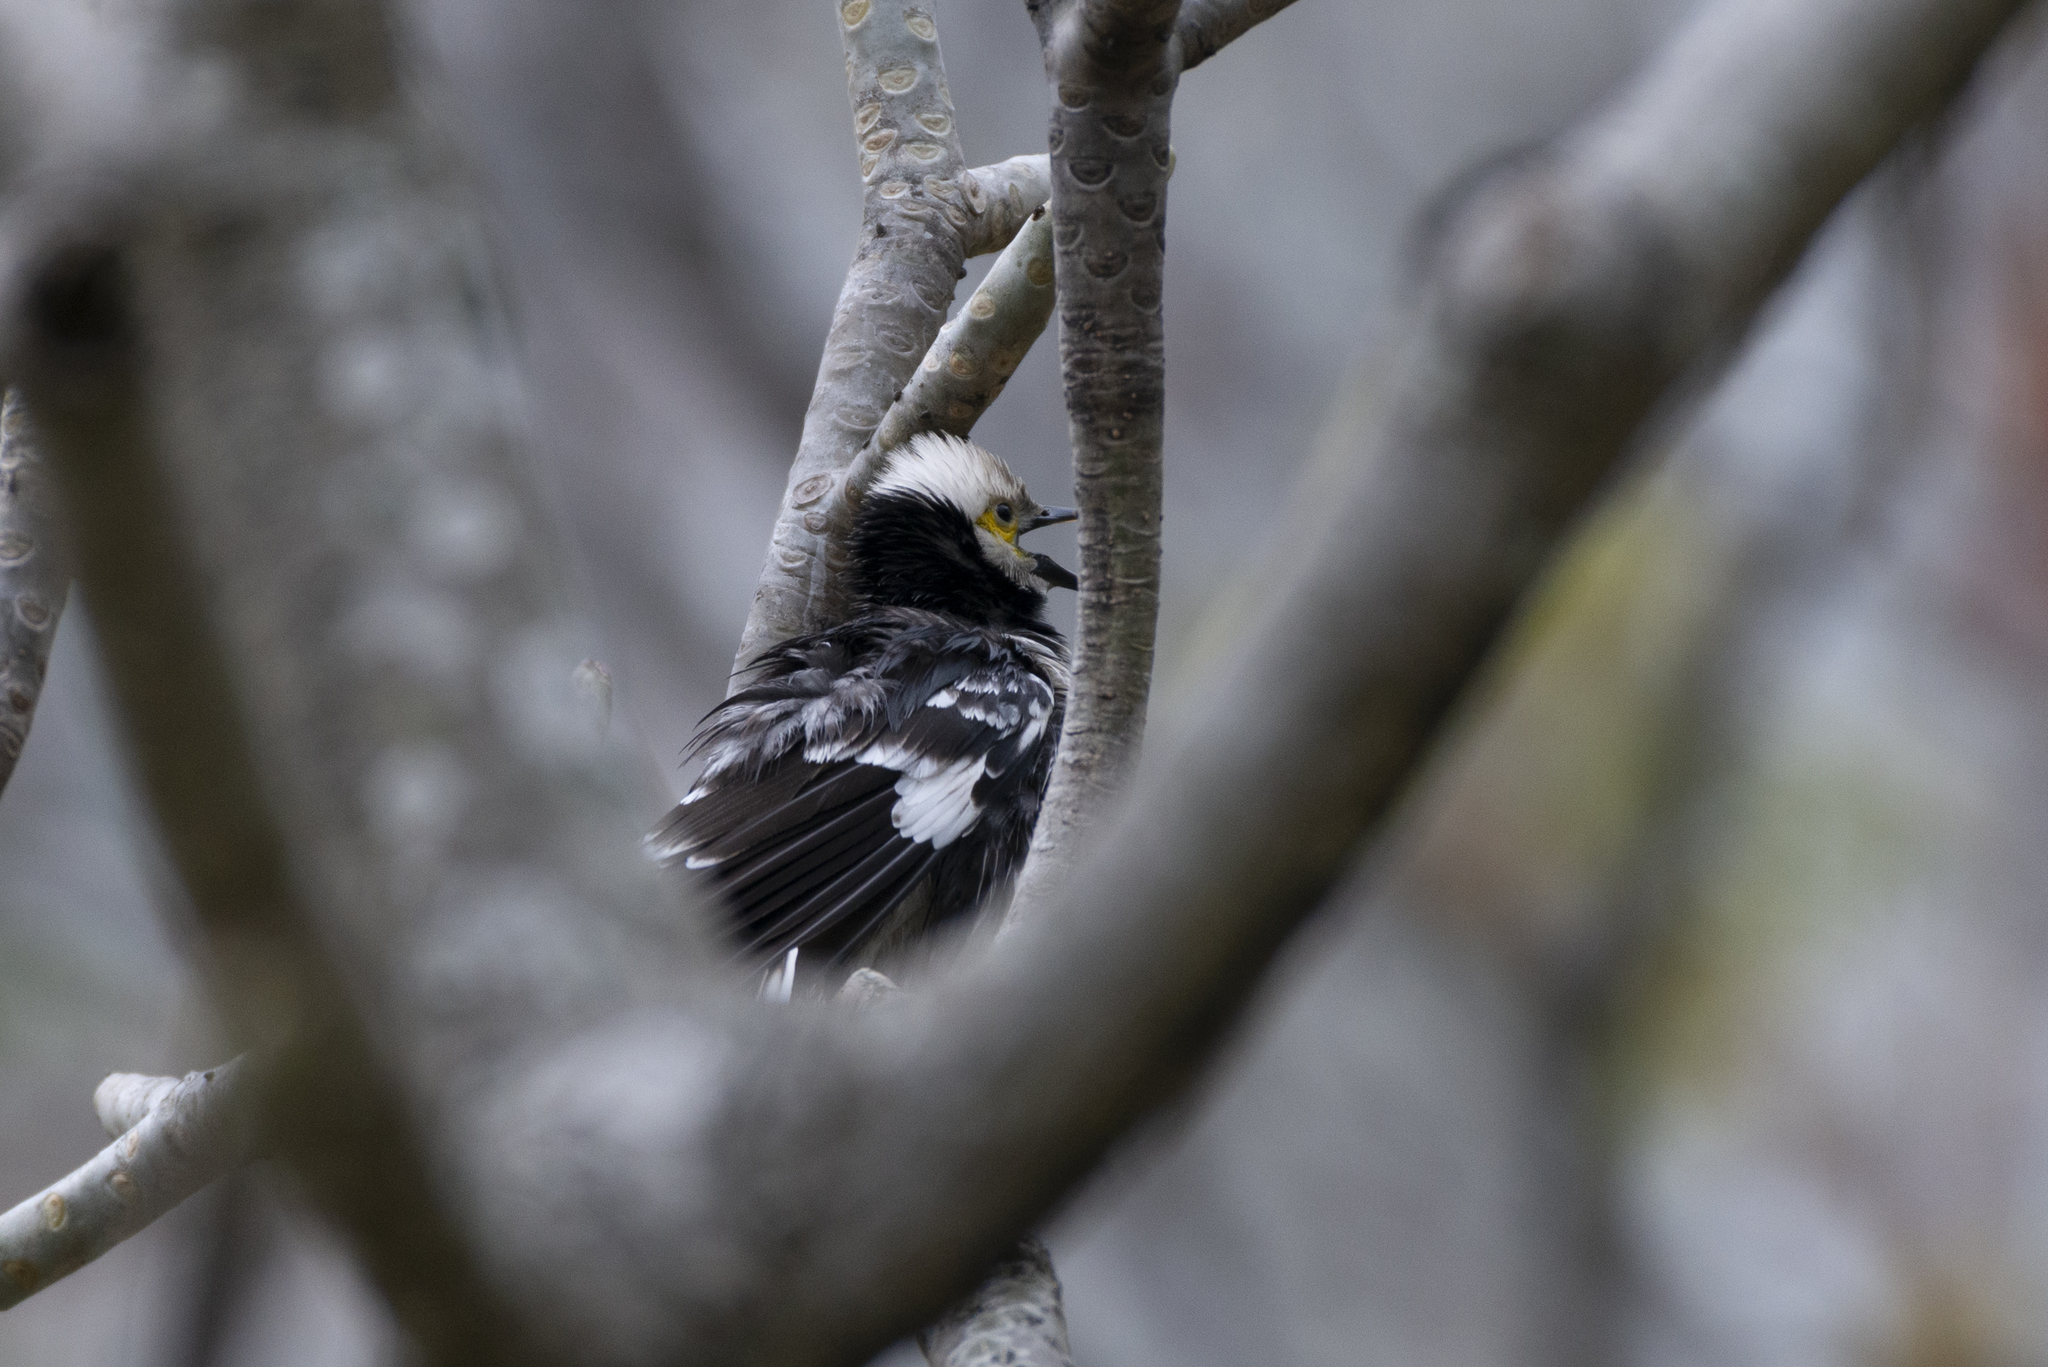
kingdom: Animalia
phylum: Chordata
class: Aves
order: Passeriformes
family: Sturnidae
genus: Gracupica
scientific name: Gracupica nigricollis
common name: Black-collared starling
